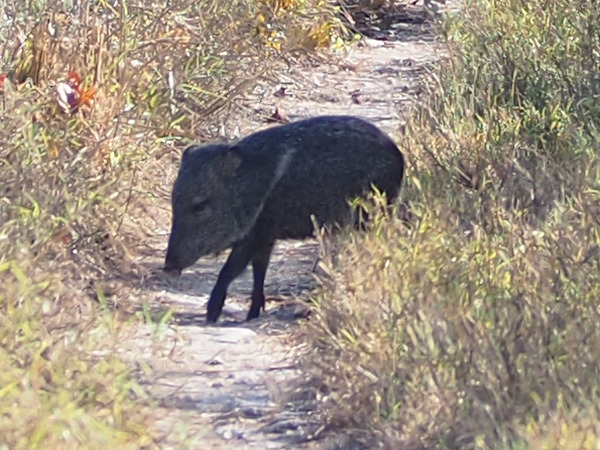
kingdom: Animalia
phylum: Chordata
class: Mammalia
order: Artiodactyla
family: Tayassuidae
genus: Pecari
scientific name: Pecari tajacu
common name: Collared peccary
